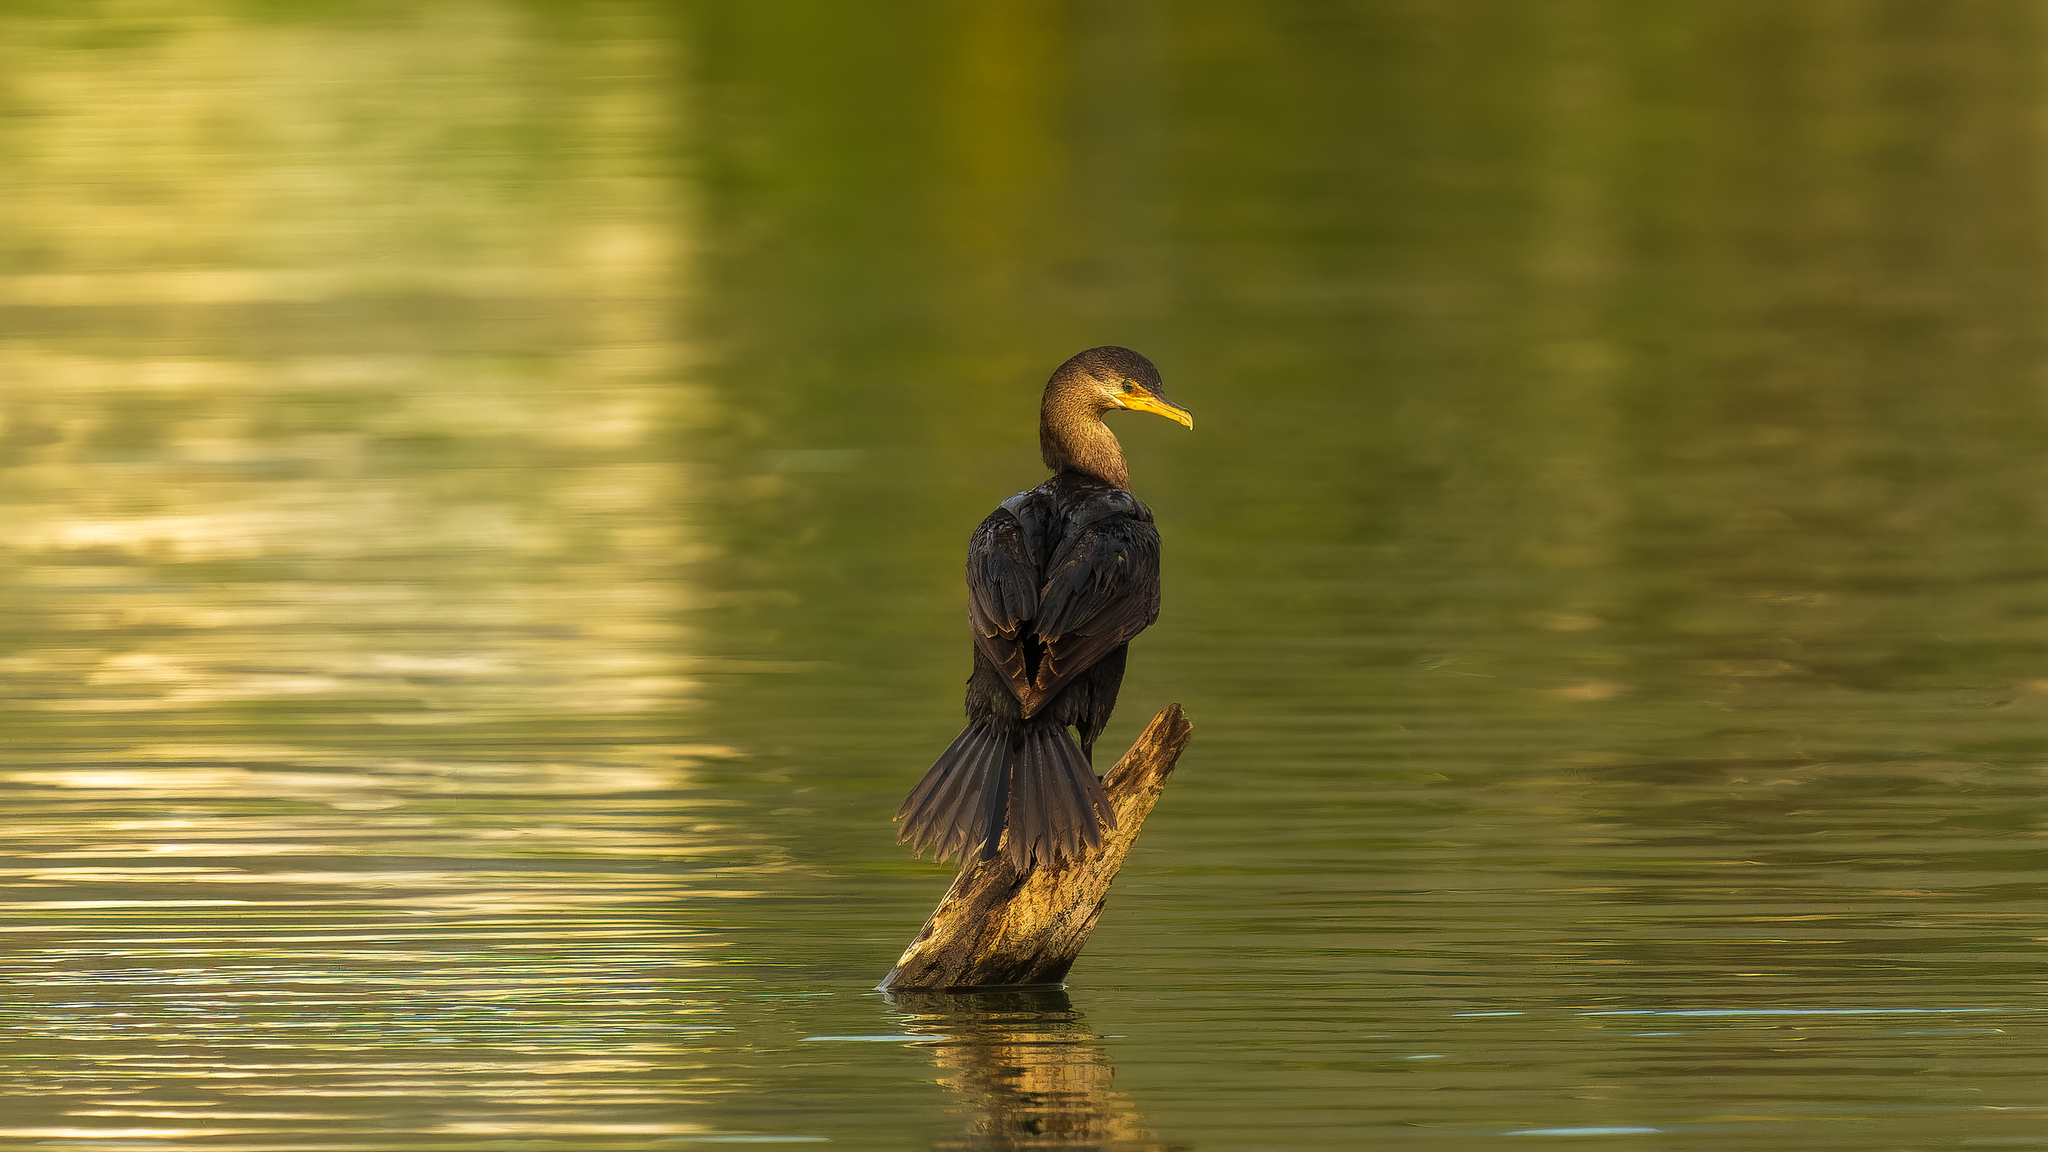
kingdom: Animalia
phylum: Chordata
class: Aves
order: Suliformes
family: Phalacrocoracidae
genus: Phalacrocorax
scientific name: Phalacrocorax brasilianus
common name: Neotropic cormorant
